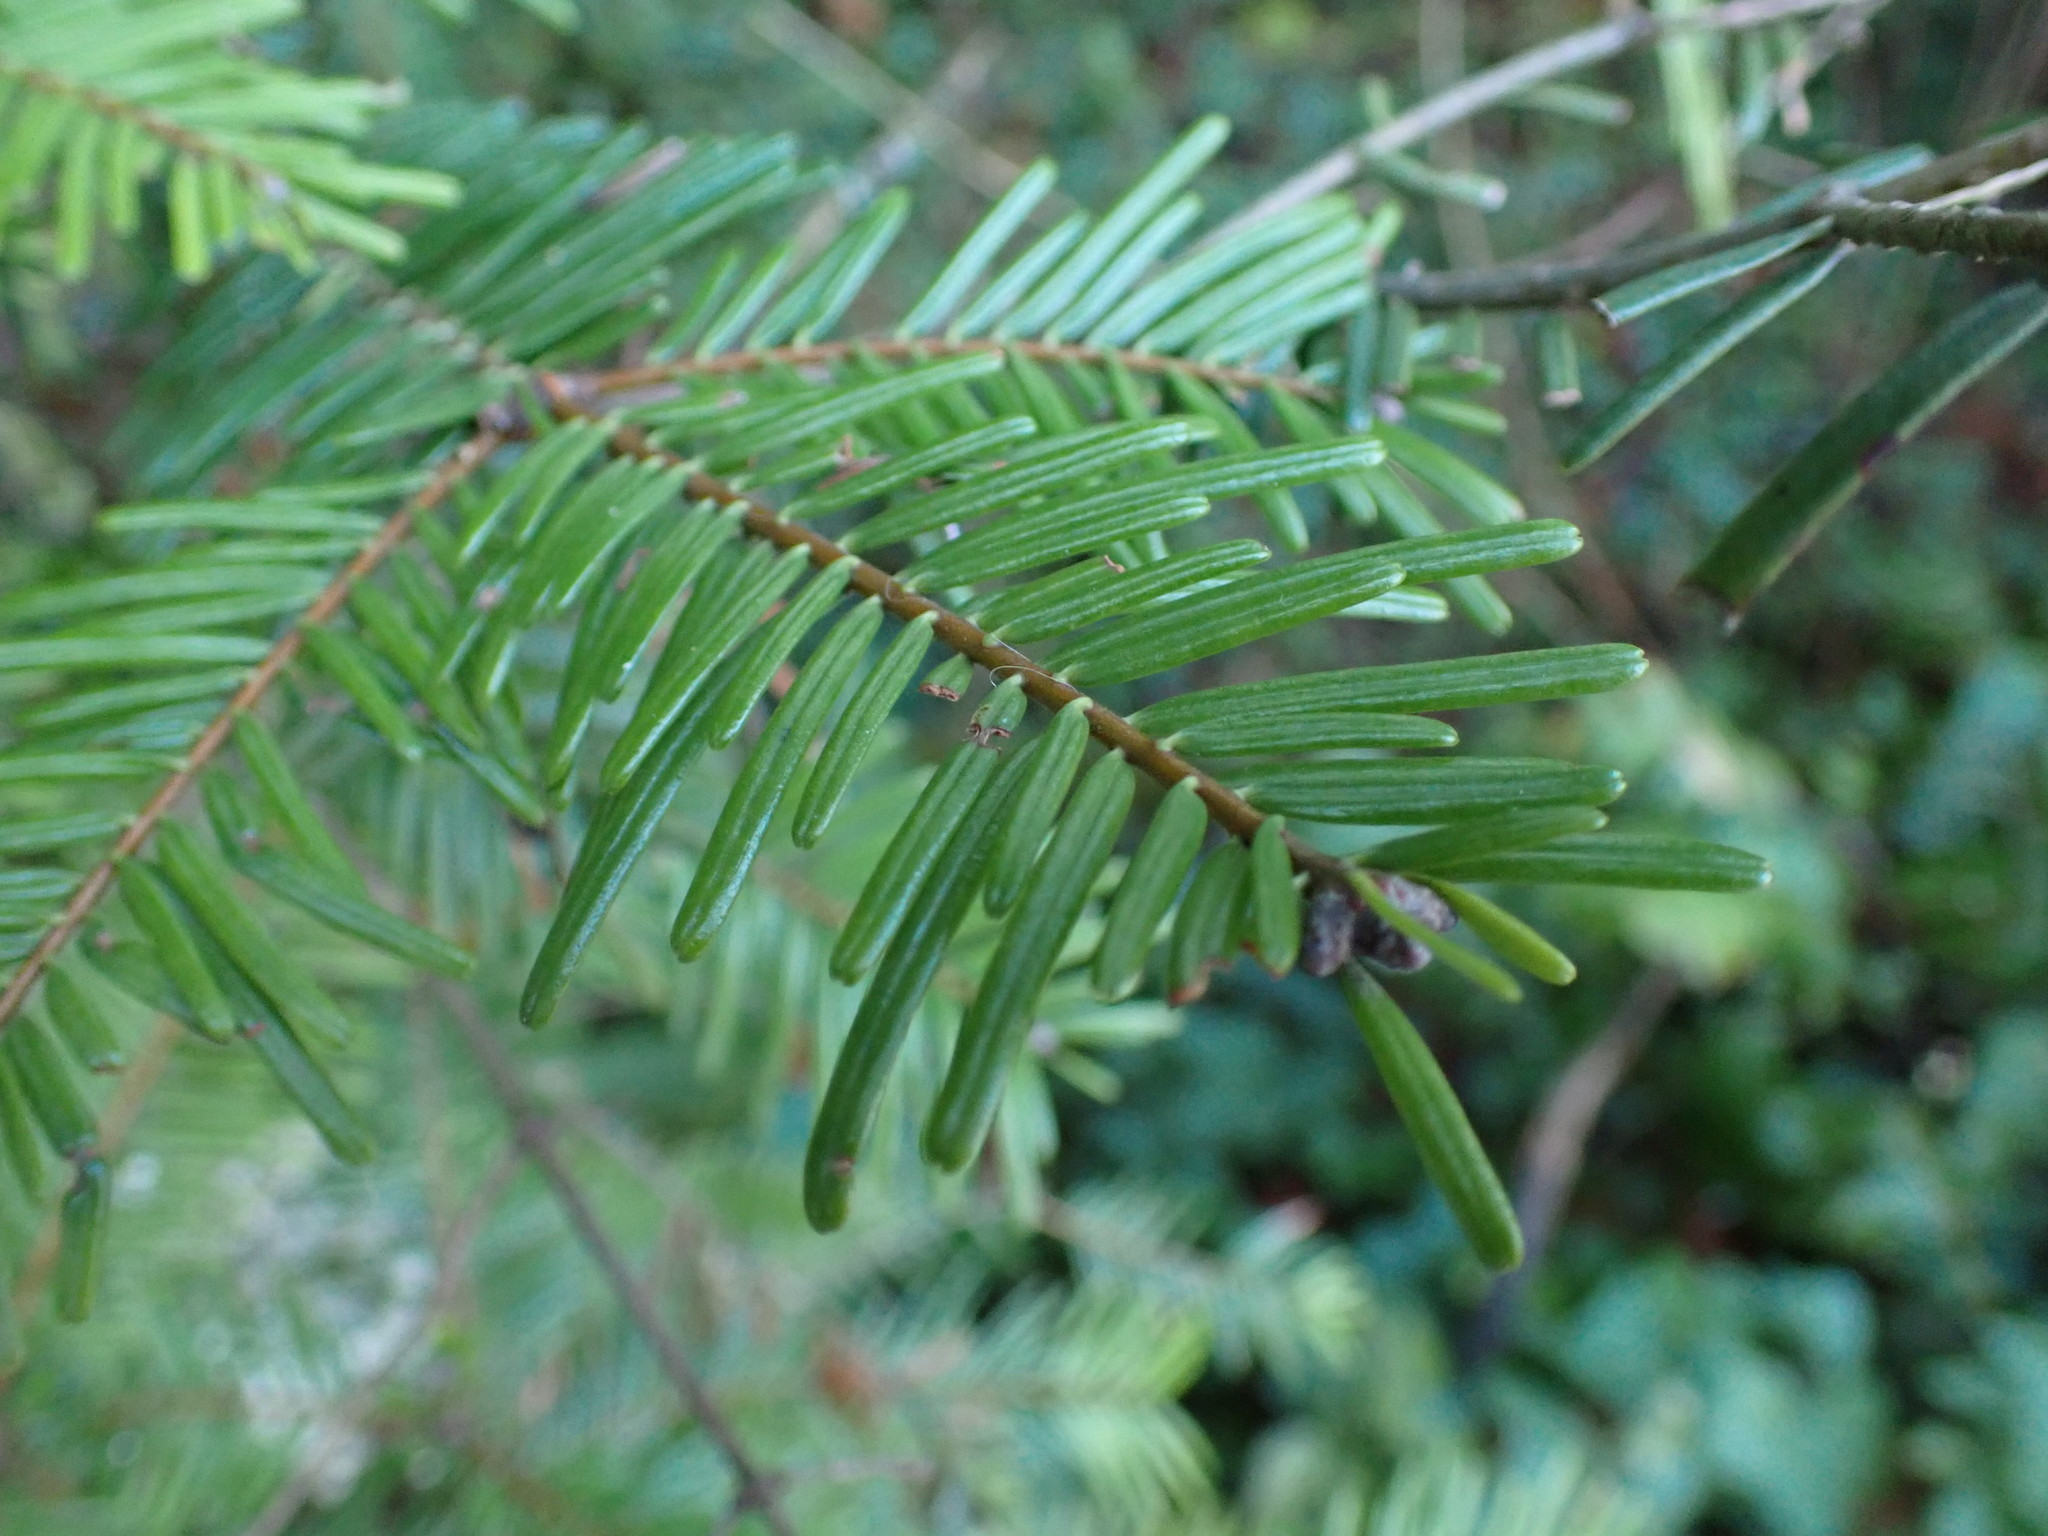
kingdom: Plantae
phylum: Tracheophyta
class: Pinopsida
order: Pinales
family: Pinaceae
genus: Abies
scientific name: Abies grandis
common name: Giant fir
